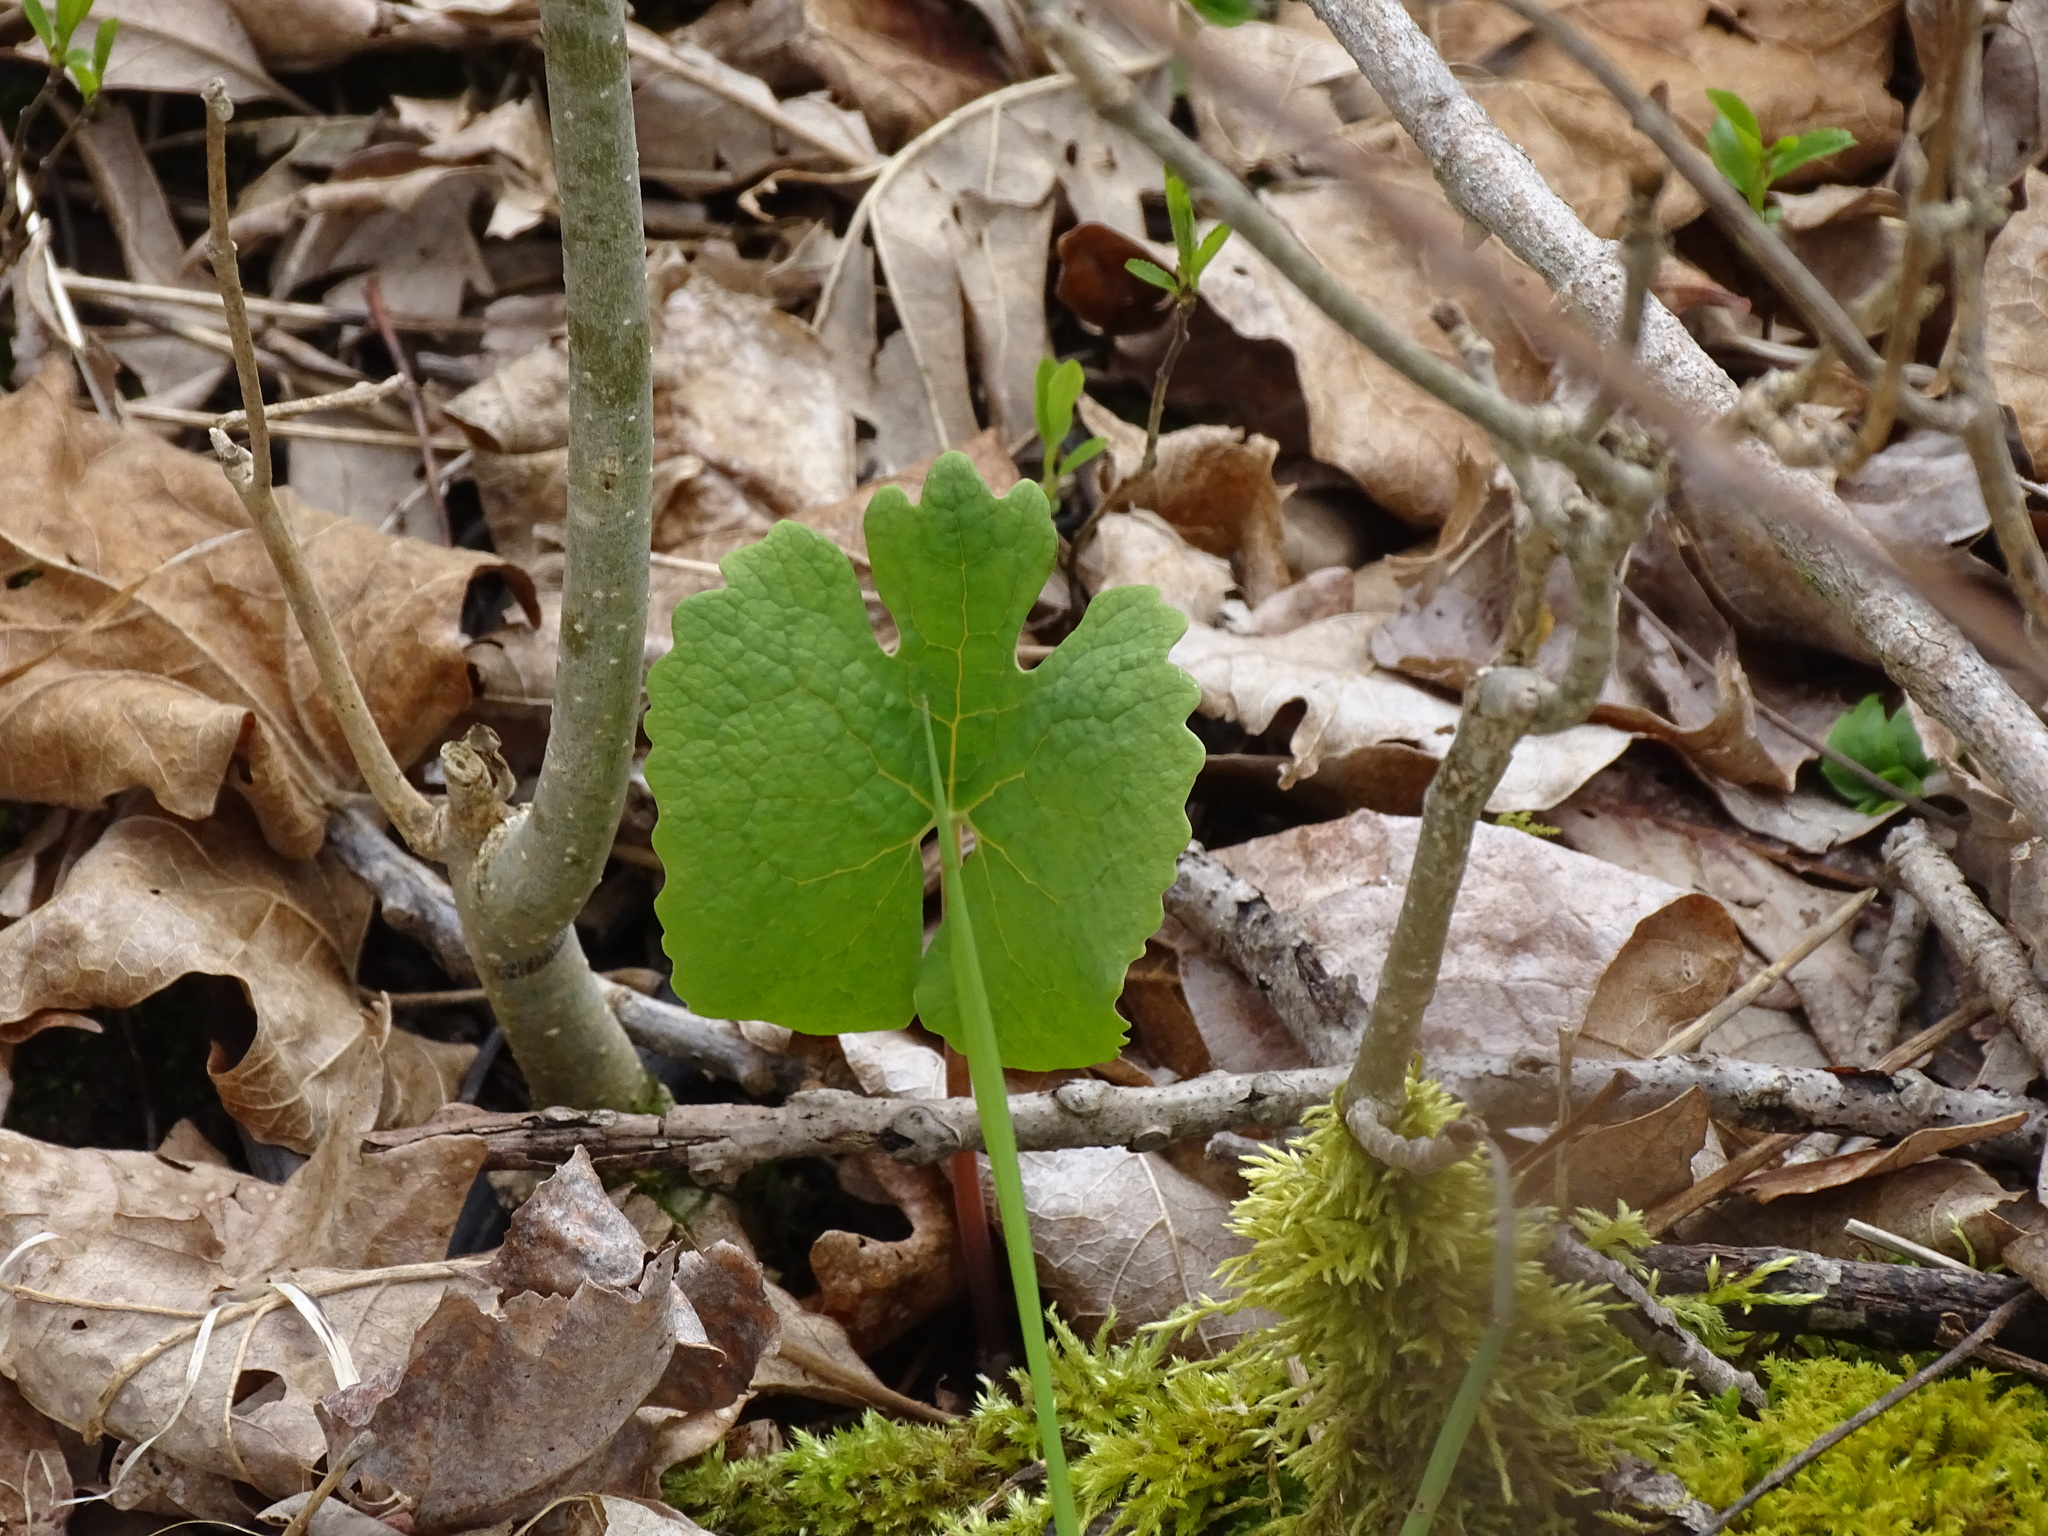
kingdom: Plantae
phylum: Tracheophyta
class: Magnoliopsida
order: Ranunculales
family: Papaveraceae
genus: Sanguinaria
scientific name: Sanguinaria canadensis
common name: Bloodroot
